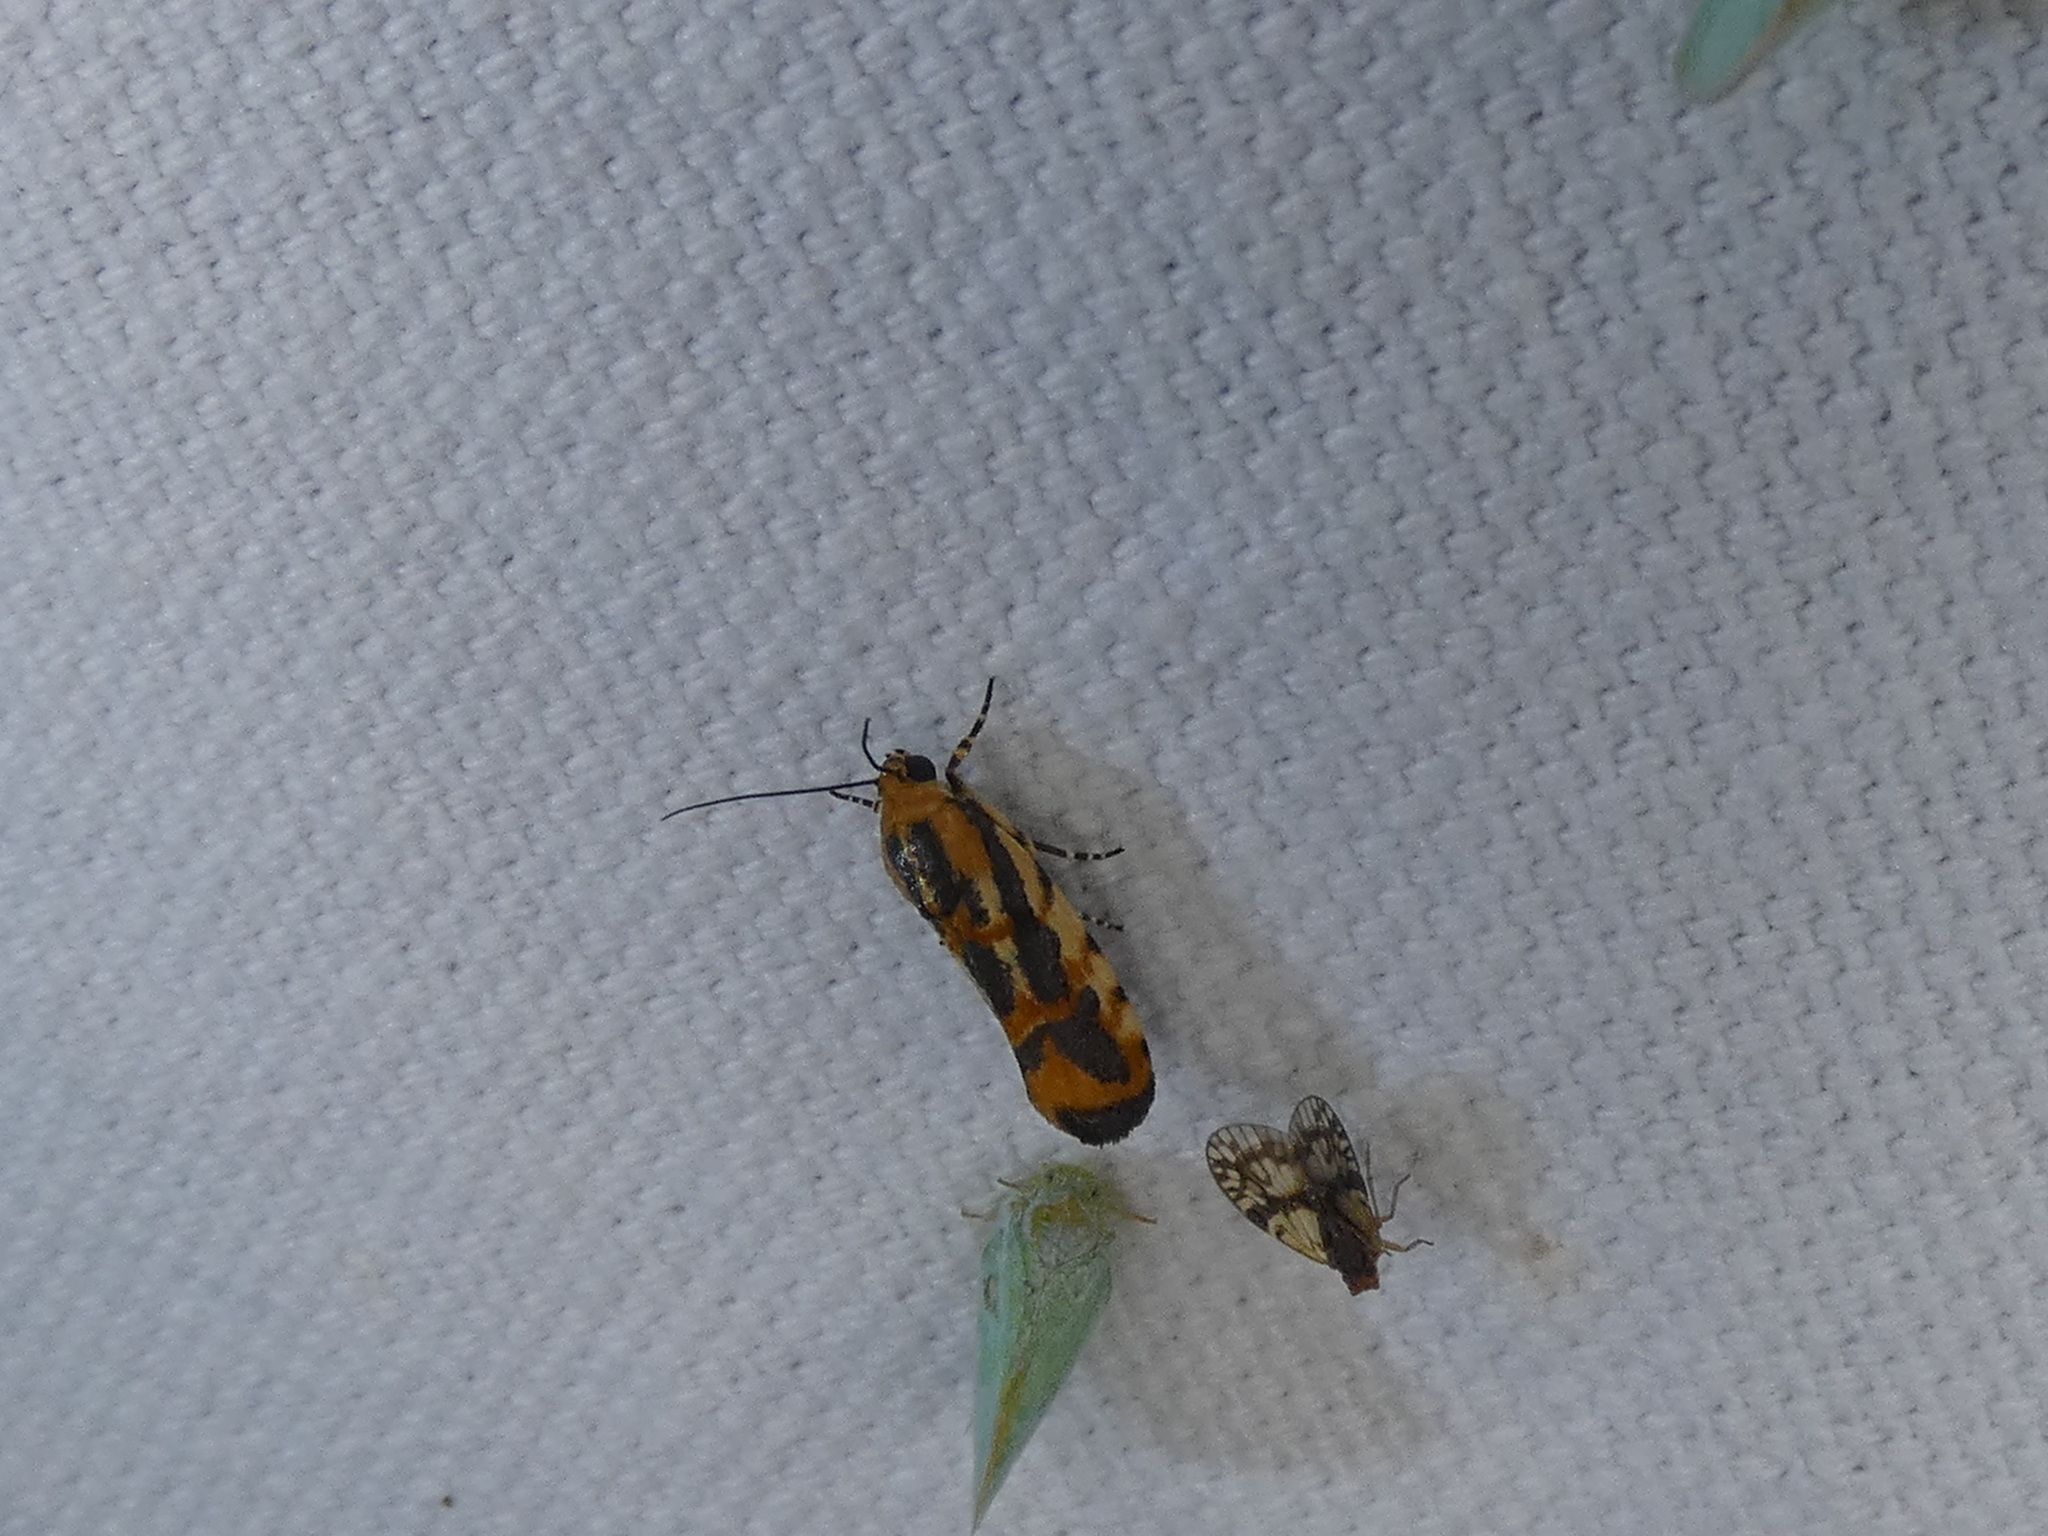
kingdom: Animalia
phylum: Arthropoda
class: Insecta
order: Lepidoptera
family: Noctuidae
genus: Acontia
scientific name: Acontia leo
